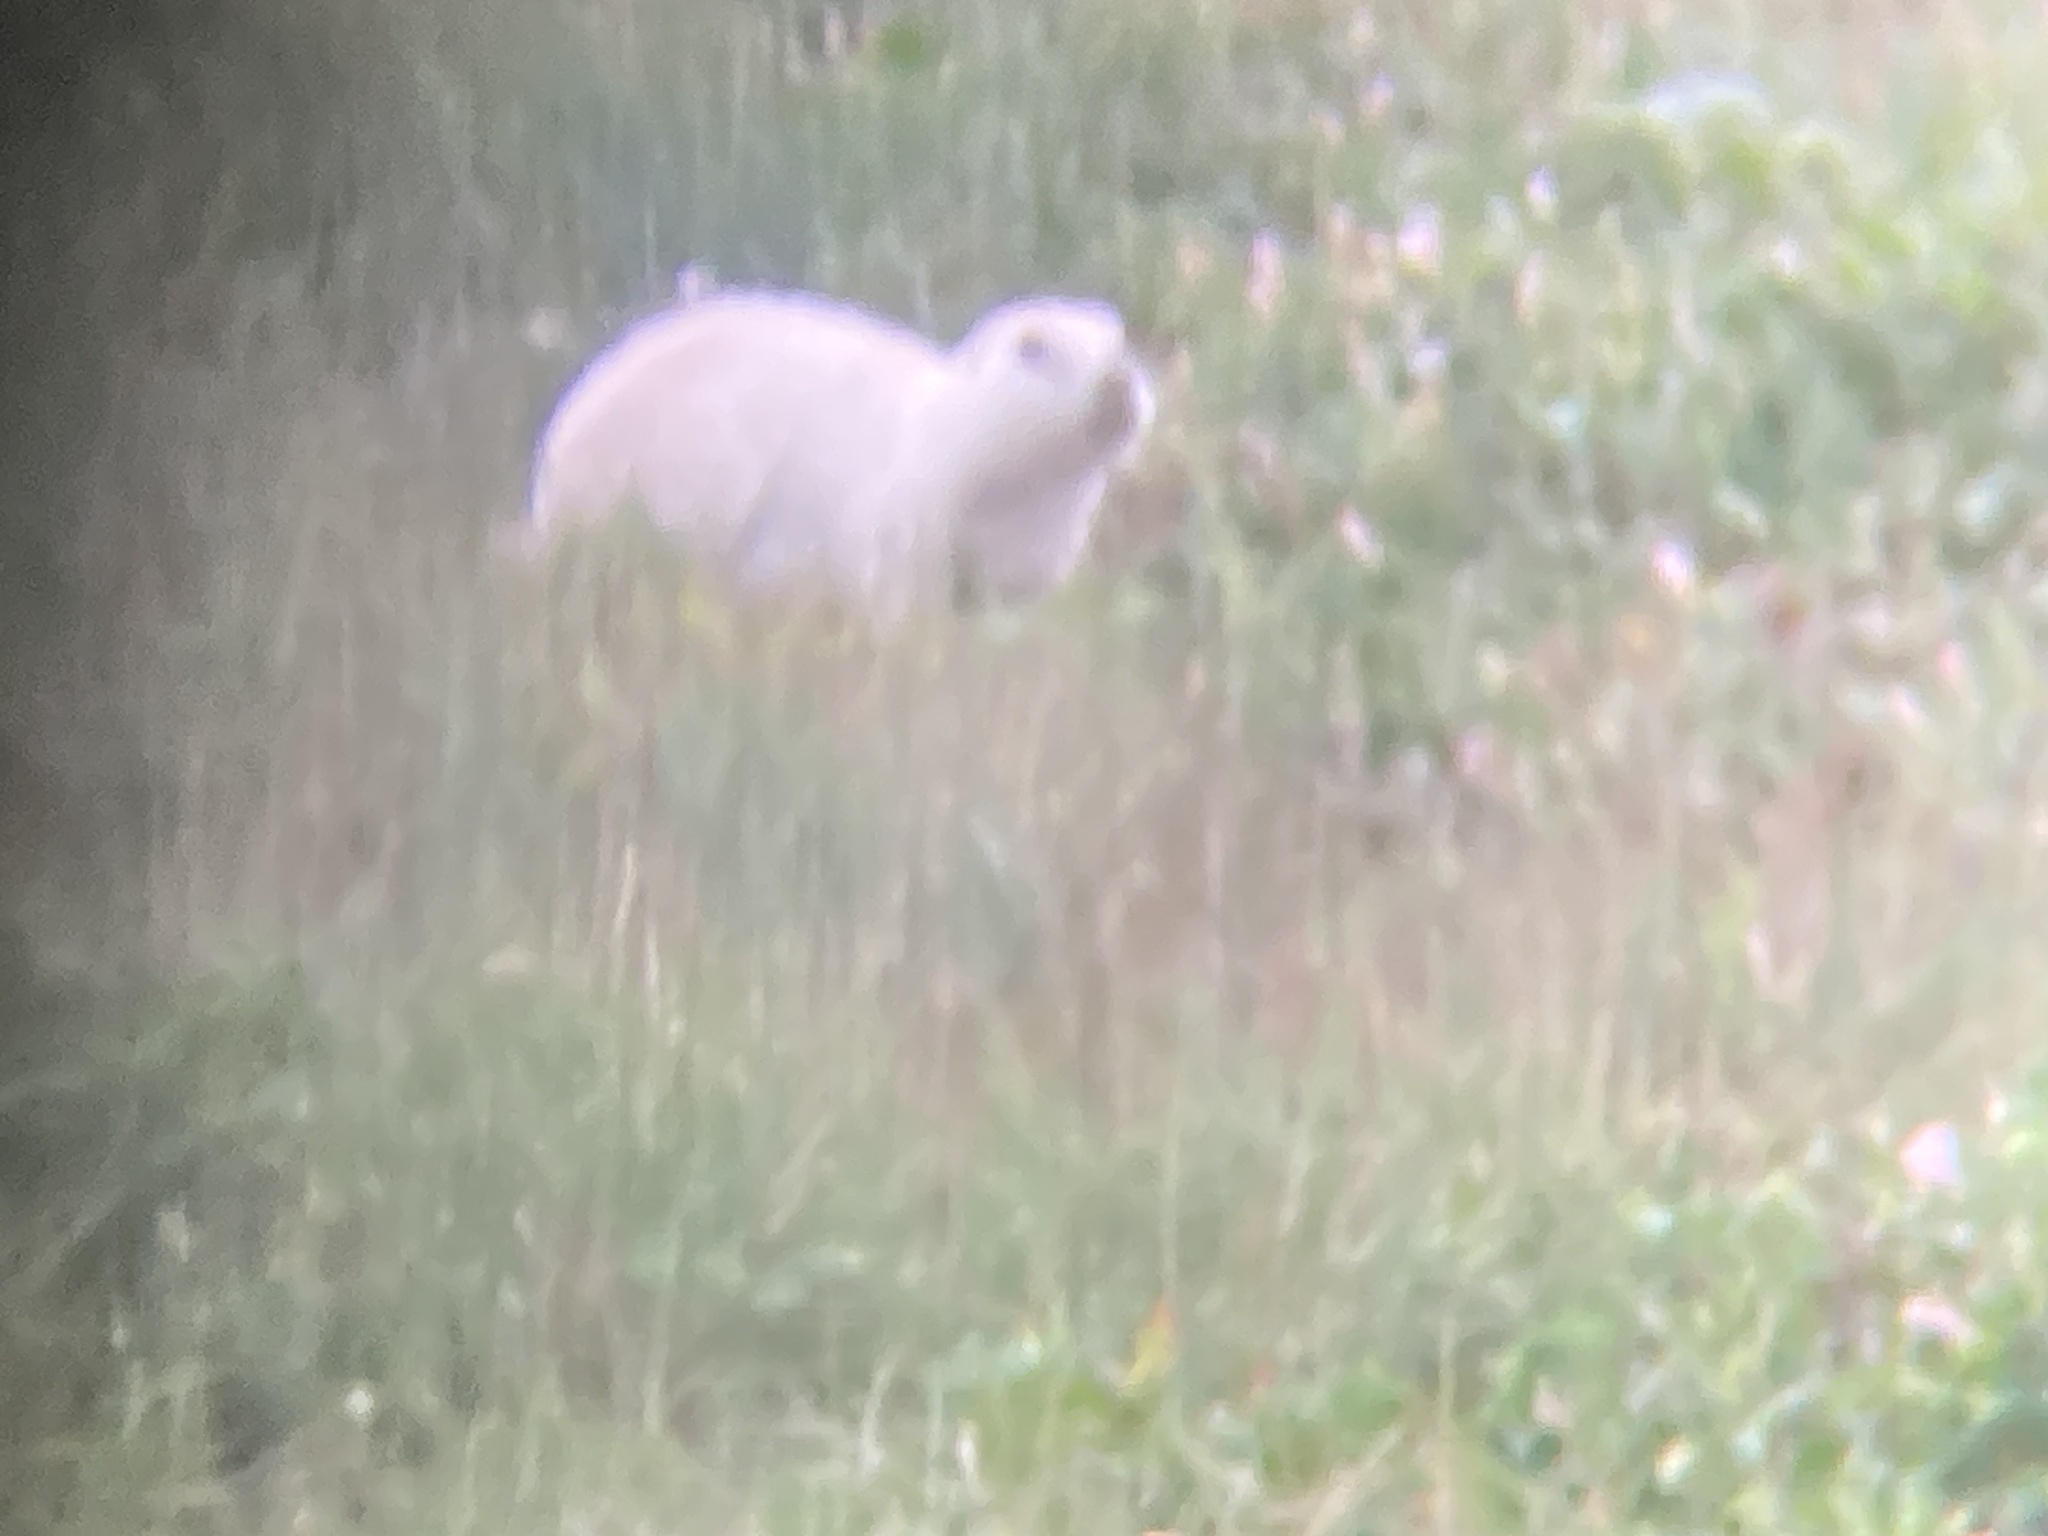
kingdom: Animalia
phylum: Chordata
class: Mammalia
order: Rodentia
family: Sciuridae
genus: Cynomys
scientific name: Cynomys ludovicianus
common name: Black-tailed prairie dog
